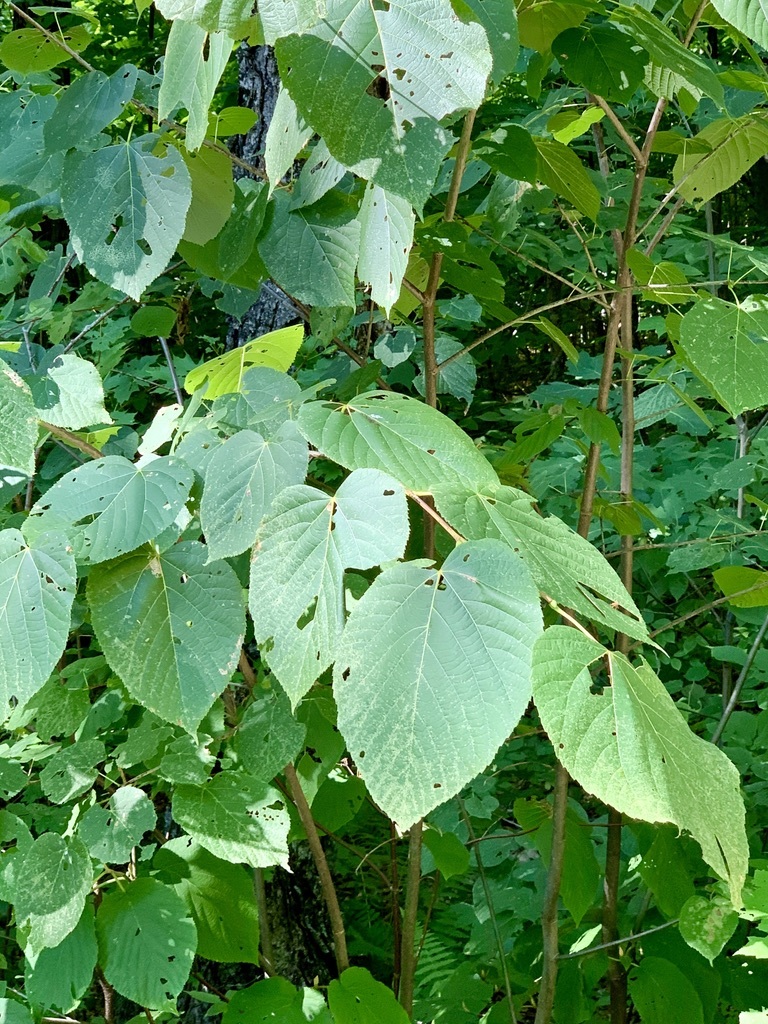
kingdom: Plantae
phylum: Tracheophyta
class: Magnoliopsida
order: Malvales
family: Malvaceae
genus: Tilia
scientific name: Tilia americana
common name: Basswood
